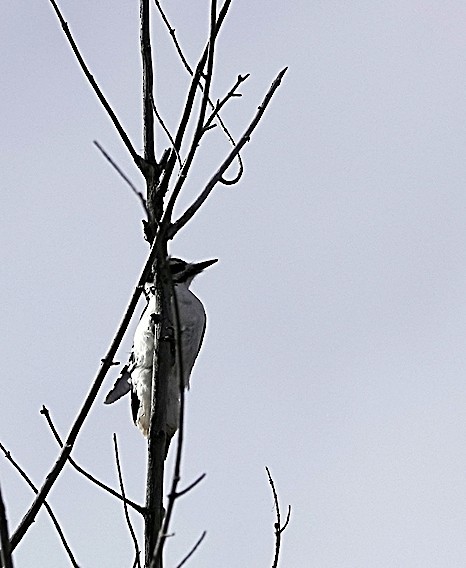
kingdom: Animalia
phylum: Chordata
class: Aves
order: Piciformes
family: Picidae
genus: Leuconotopicus
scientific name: Leuconotopicus villosus
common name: Hairy woodpecker
